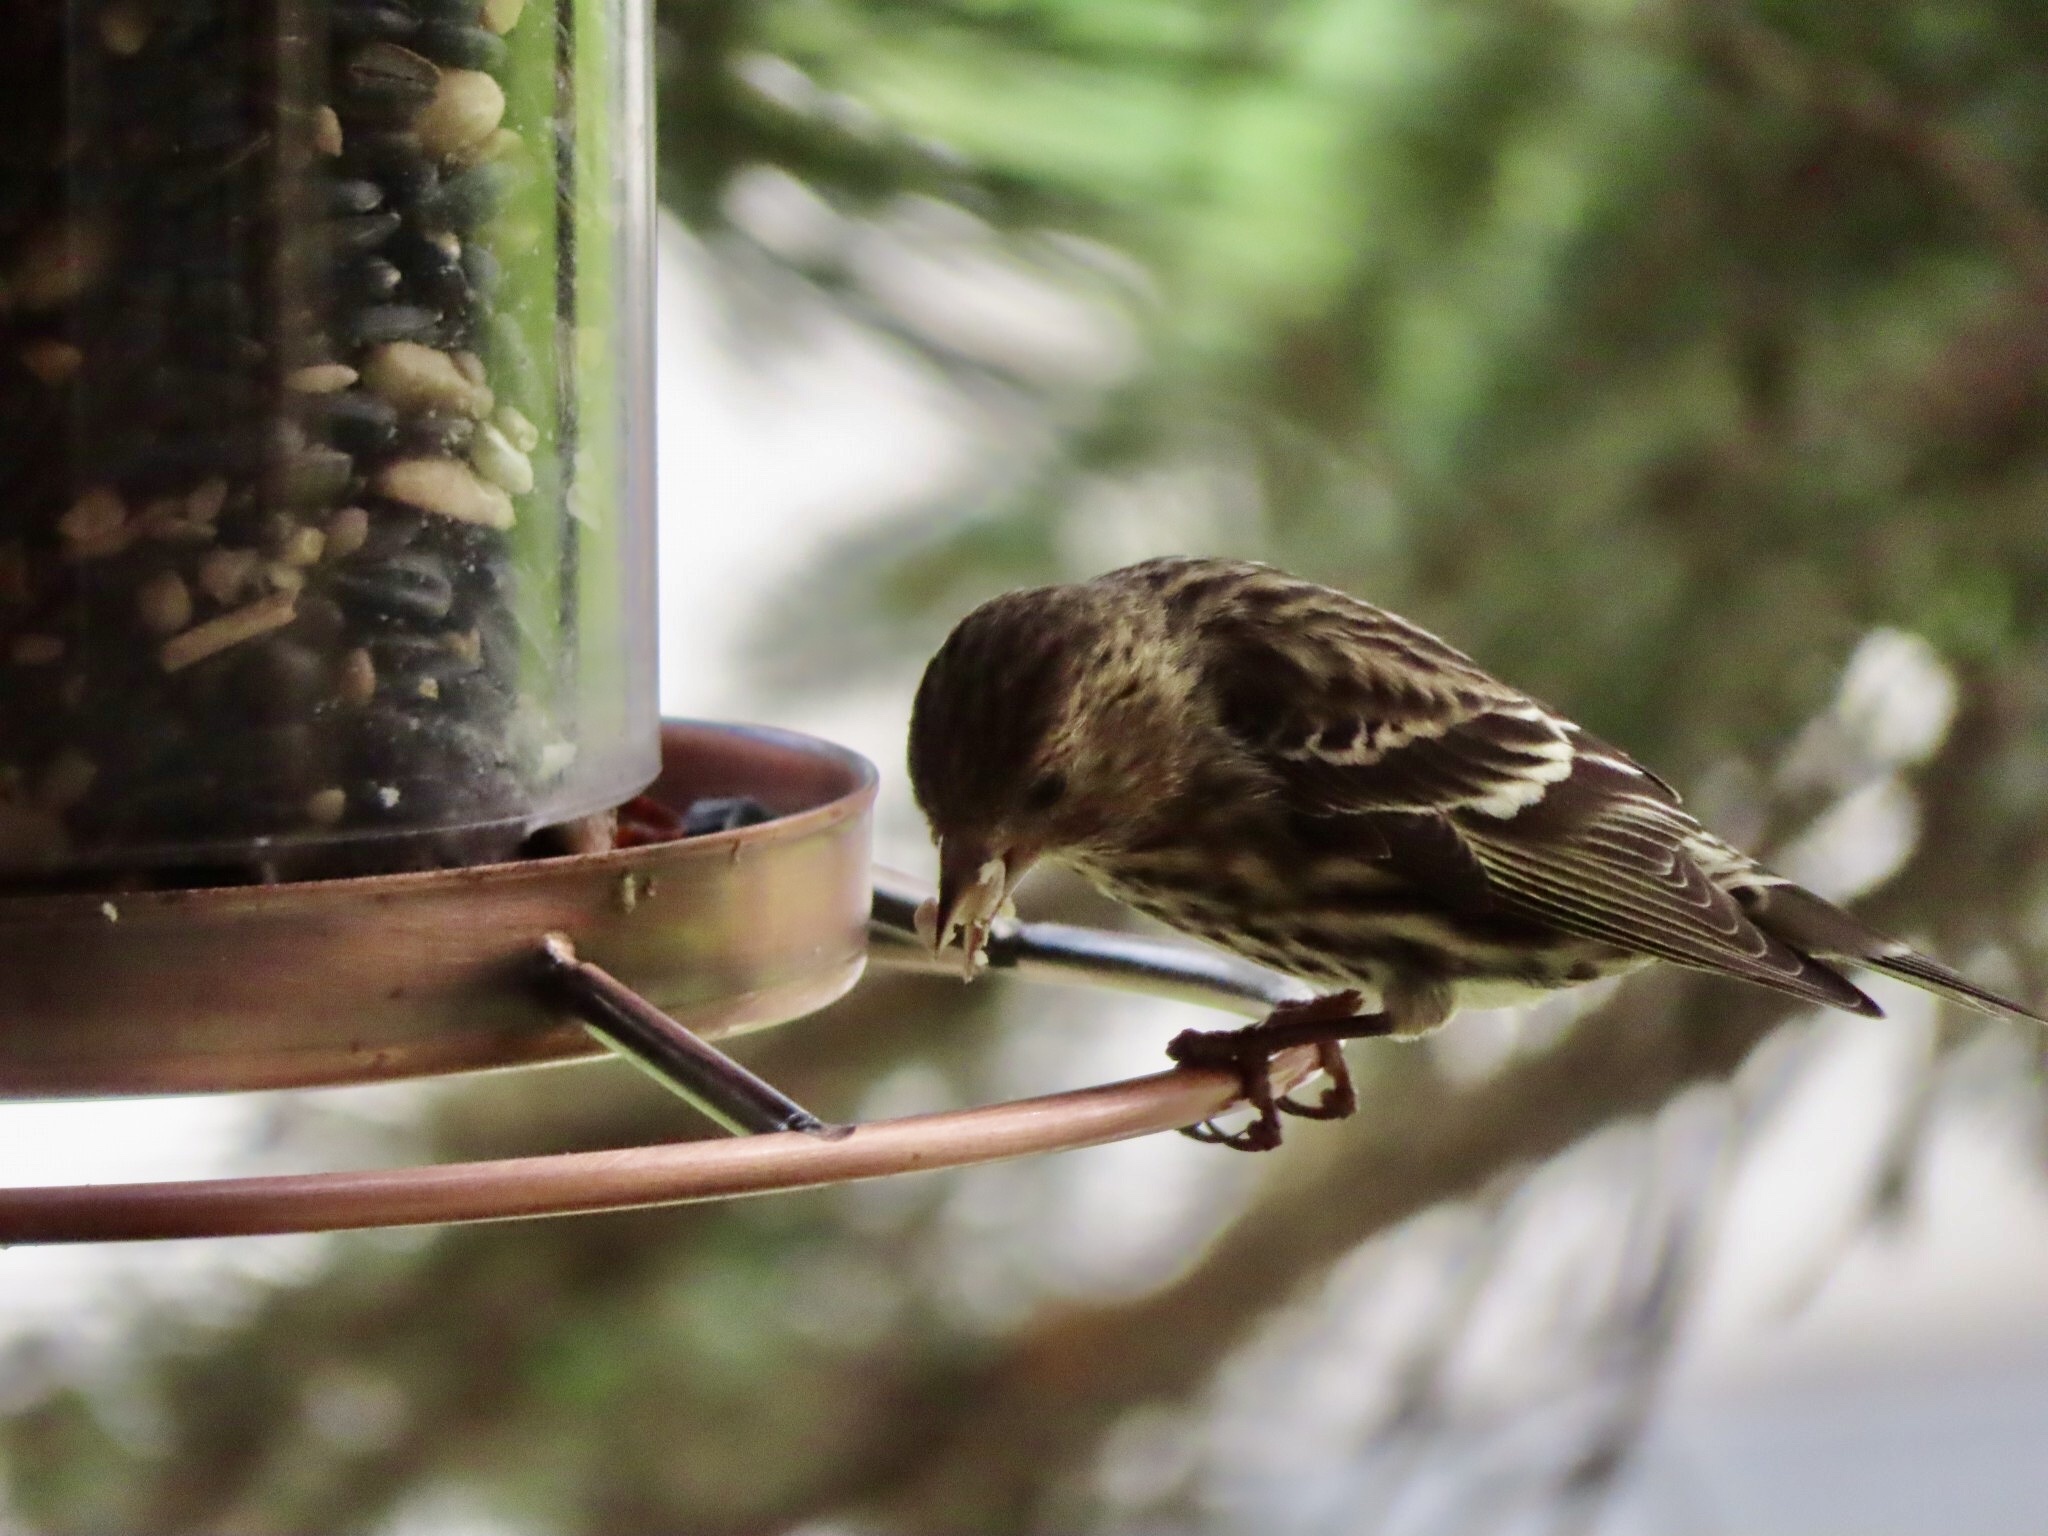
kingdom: Animalia
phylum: Chordata
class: Aves
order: Passeriformes
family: Fringillidae
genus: Spinus
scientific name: Spinus pinus
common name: Pine siskin
